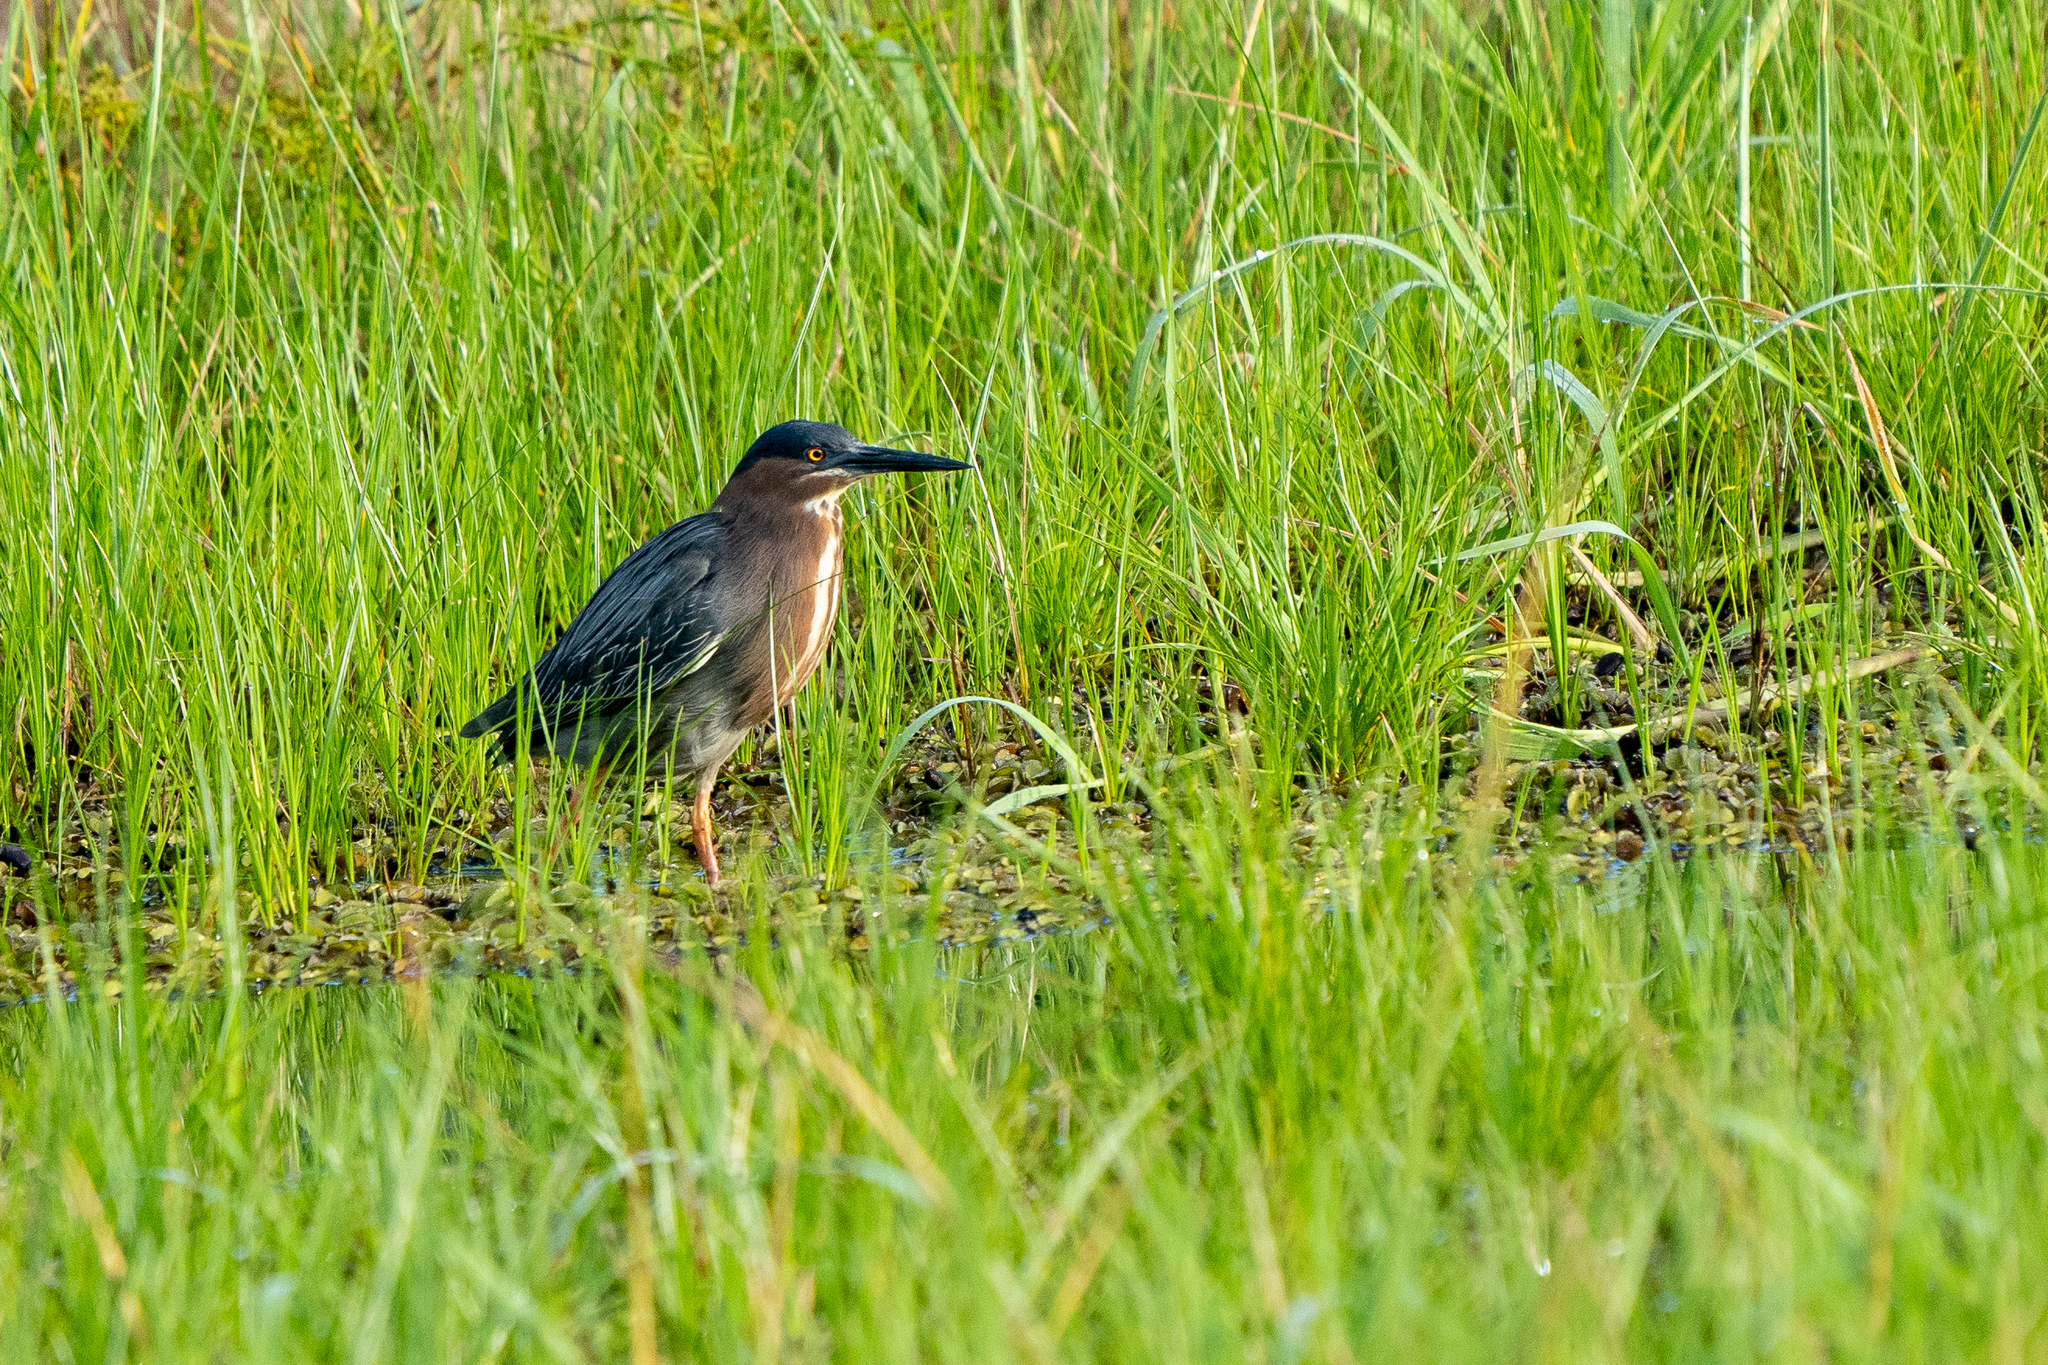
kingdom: Animalia
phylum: Chordata
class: Aves
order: Pelecaniformes
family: Ardeidae
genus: Butorides
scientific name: Butorides virescens
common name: Green heron
